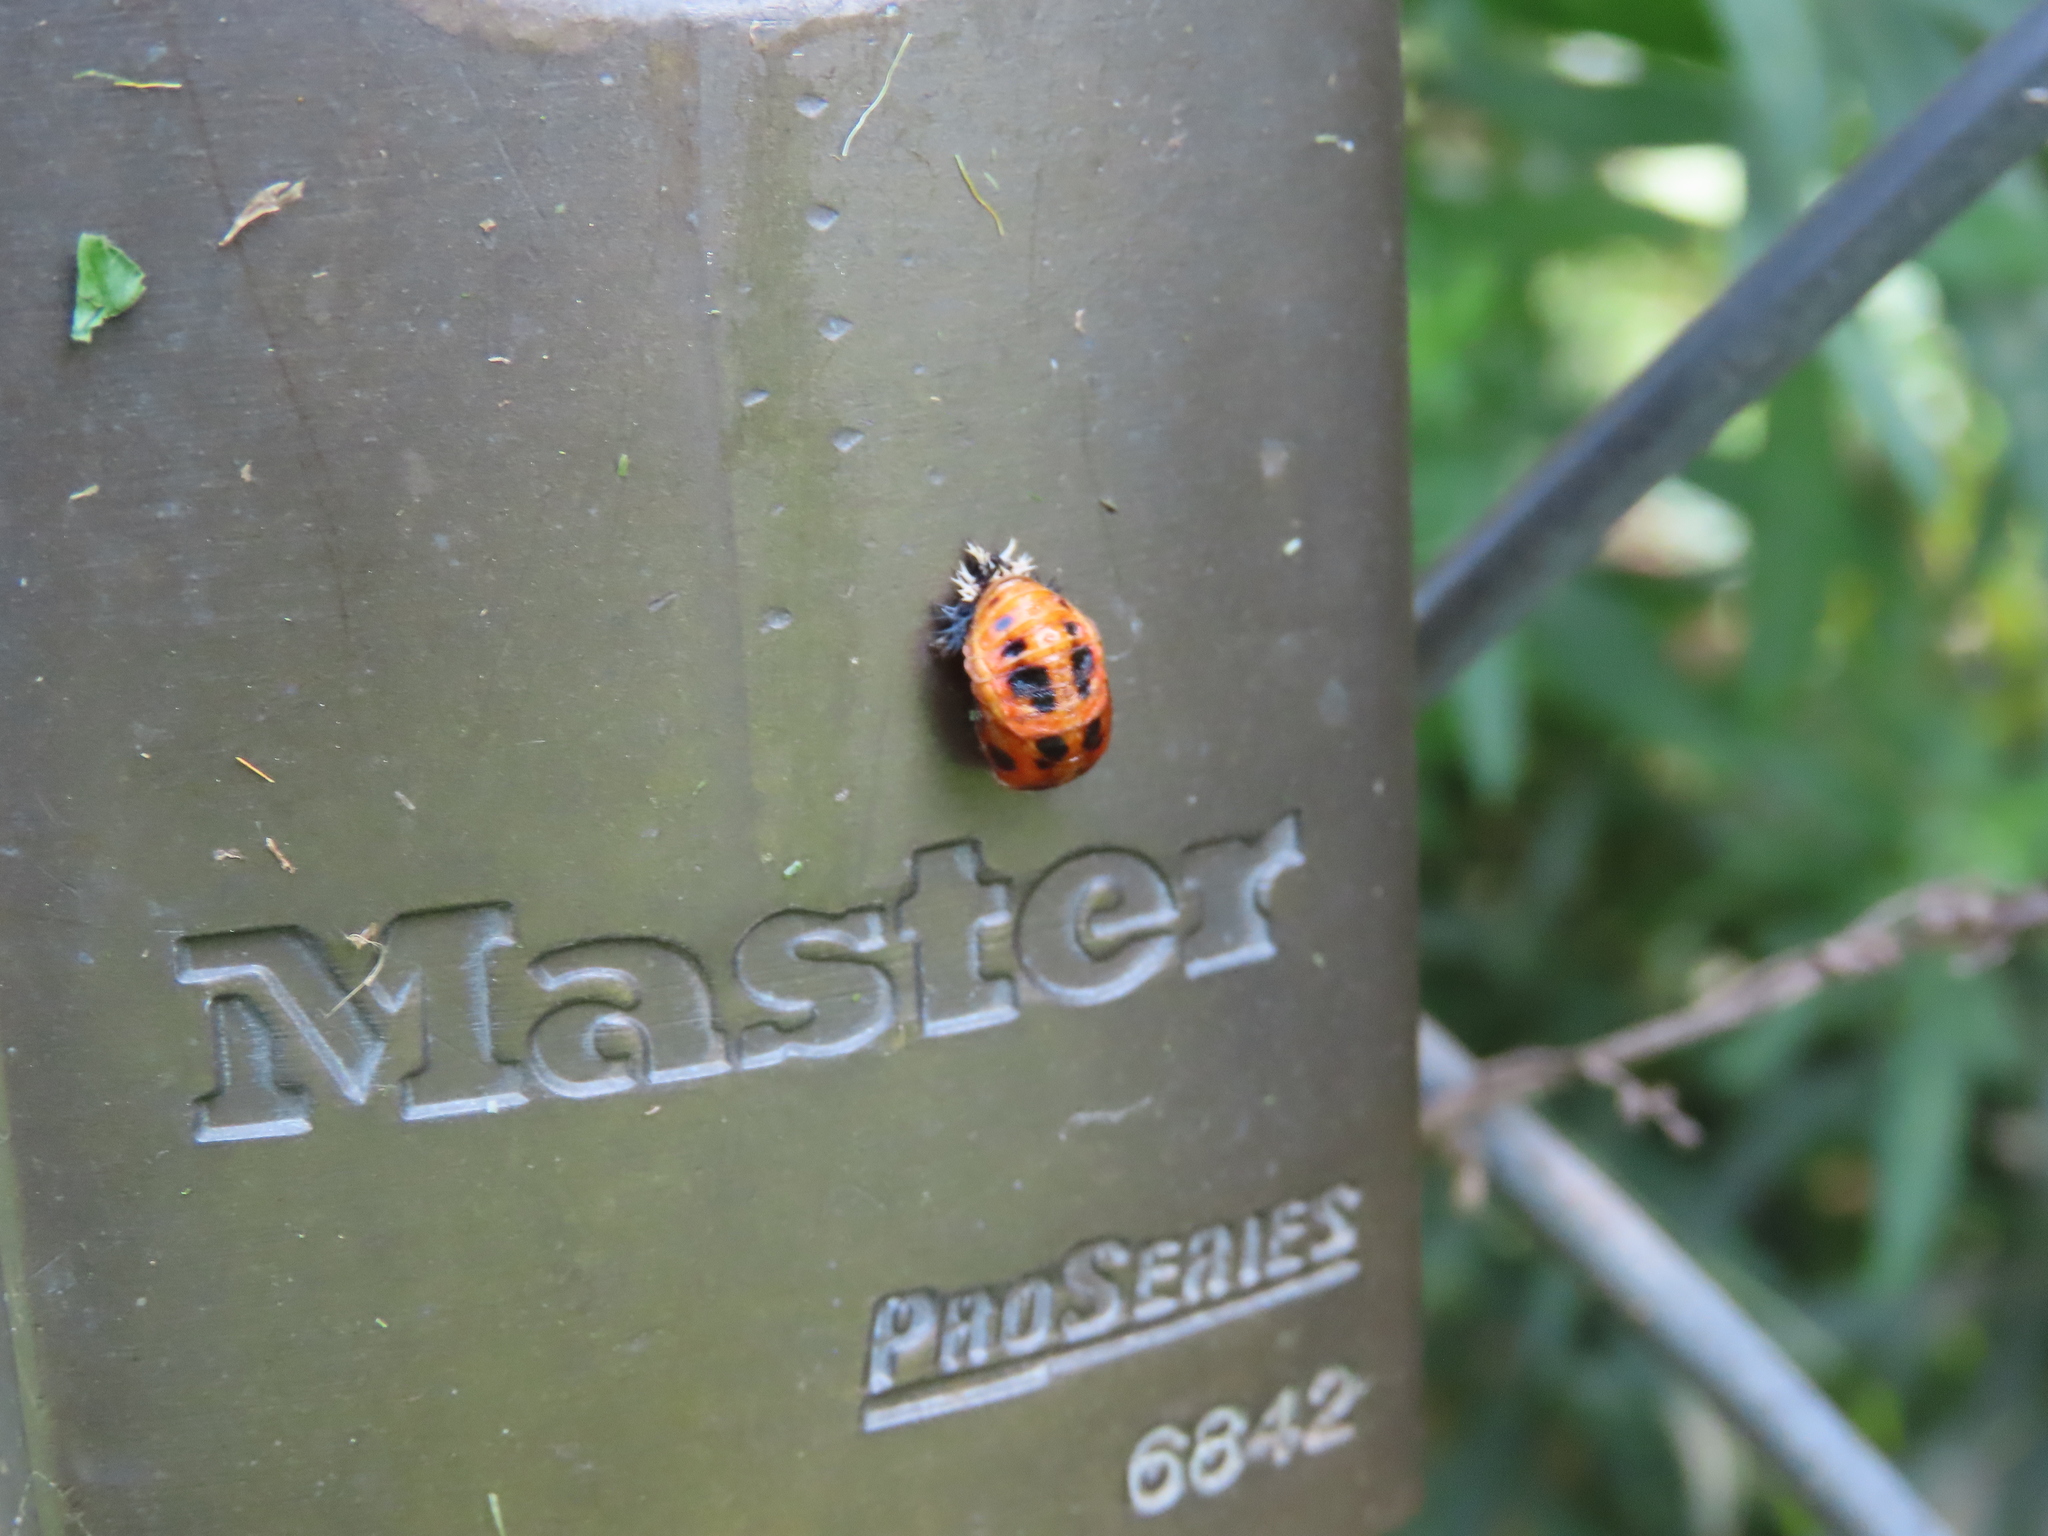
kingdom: Animalia
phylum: Arthropoda
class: Insecta
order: Coleoptera
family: Coccinellidae
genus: Harmonia
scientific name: Harmonia axyridis
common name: Harlequin ladybird
